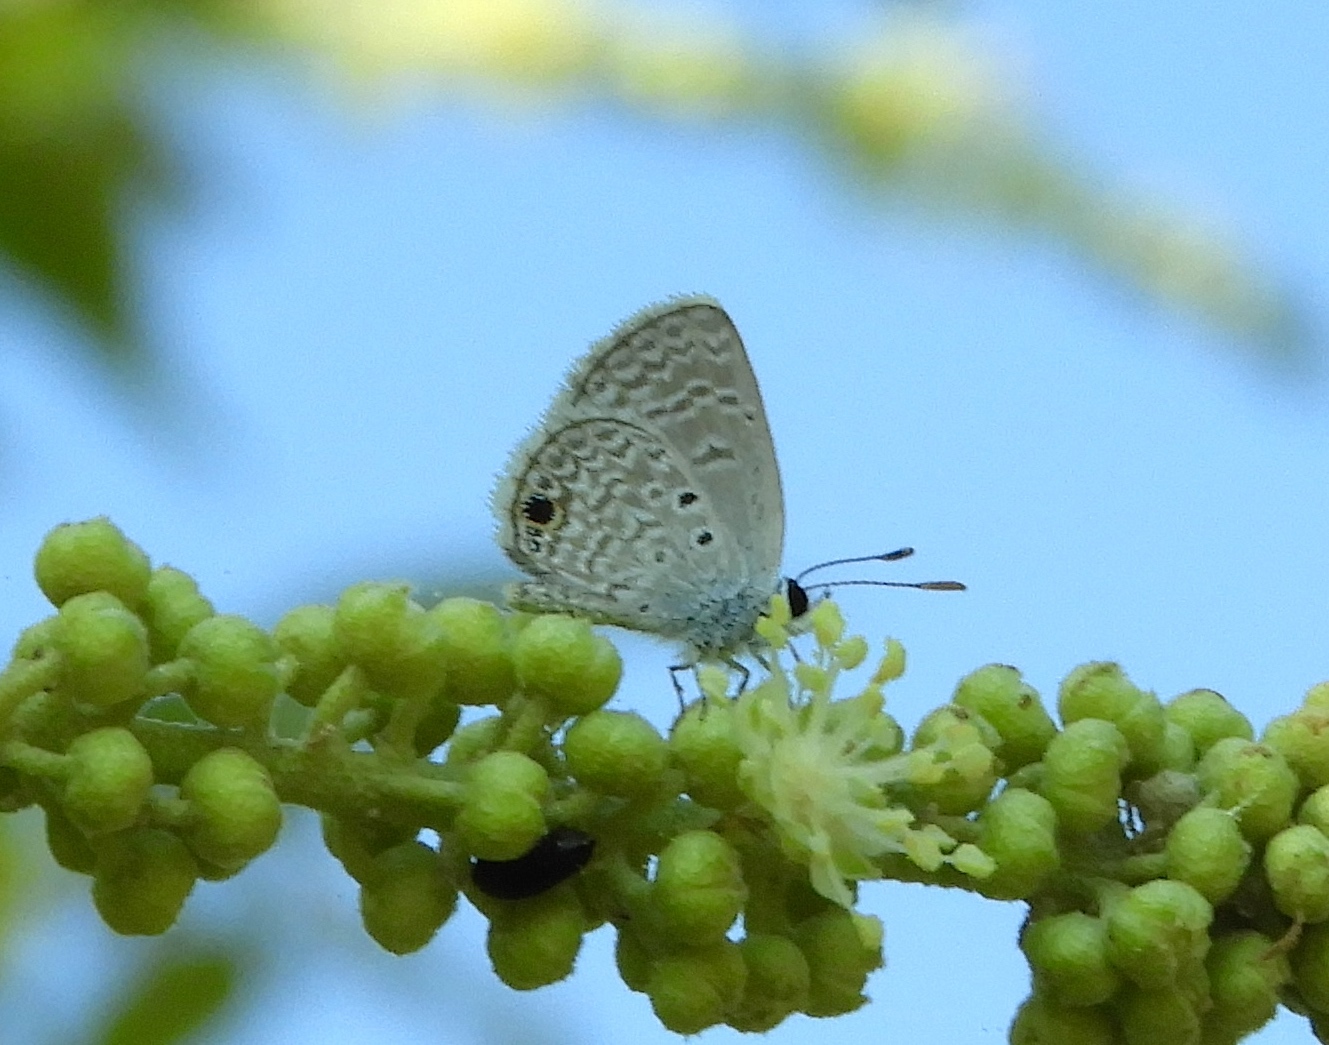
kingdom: Animalia
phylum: Arthropoda
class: Insecta
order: Lepidoptera
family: Lycaenidae
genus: Echinargus
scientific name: Echinargus isola
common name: Reakirt's blue
